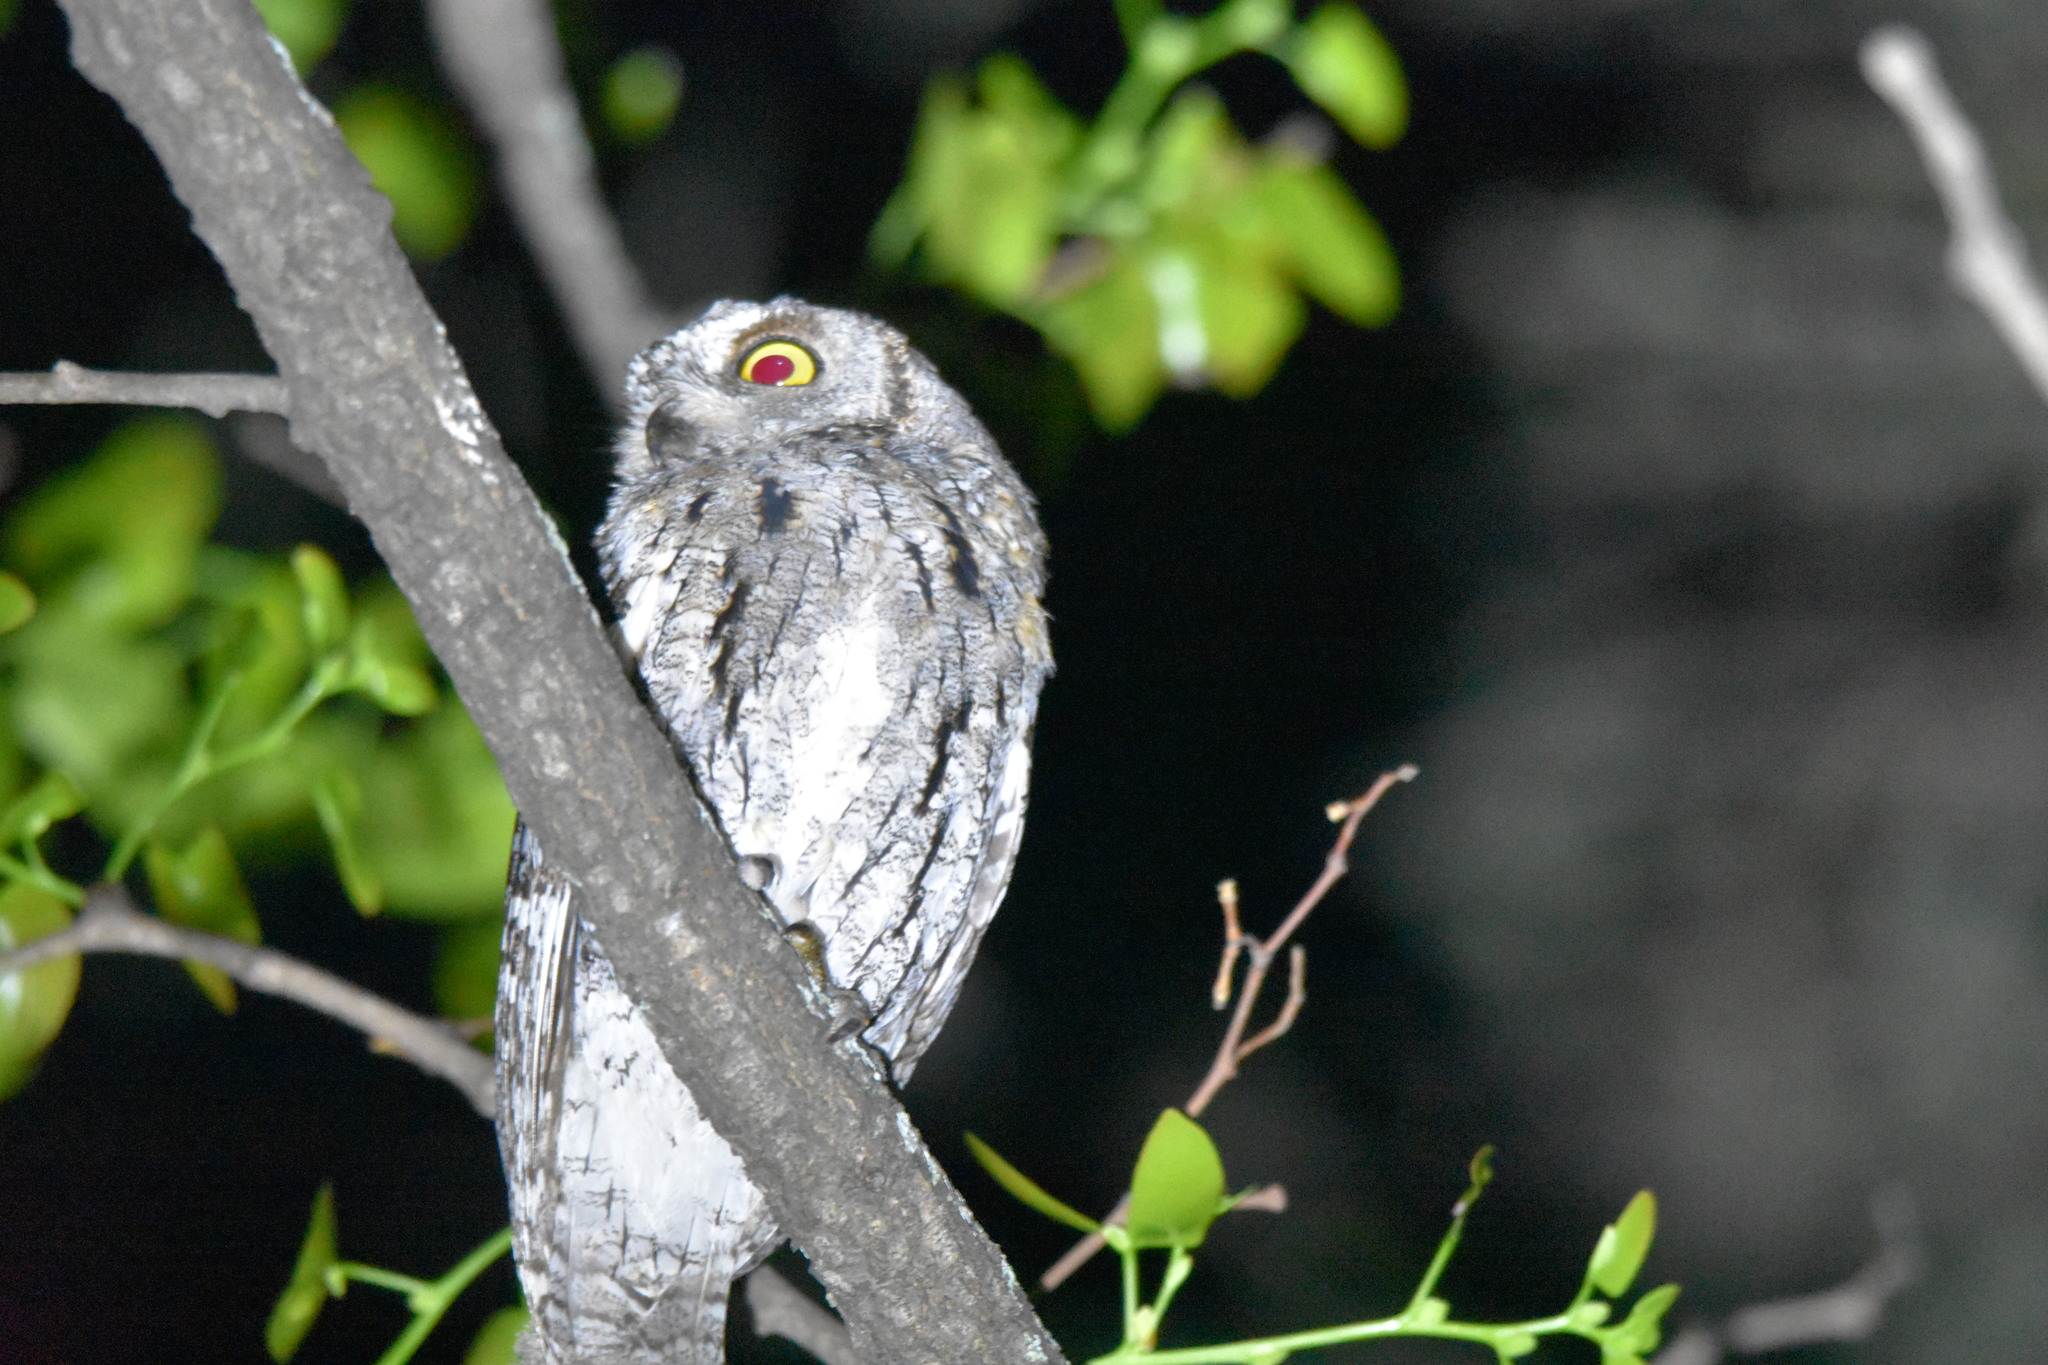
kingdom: Animalia
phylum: Chordata
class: Aves
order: Strigiformes
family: Strigidae
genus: Otus
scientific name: Otus senegalensis
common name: African scops owl
